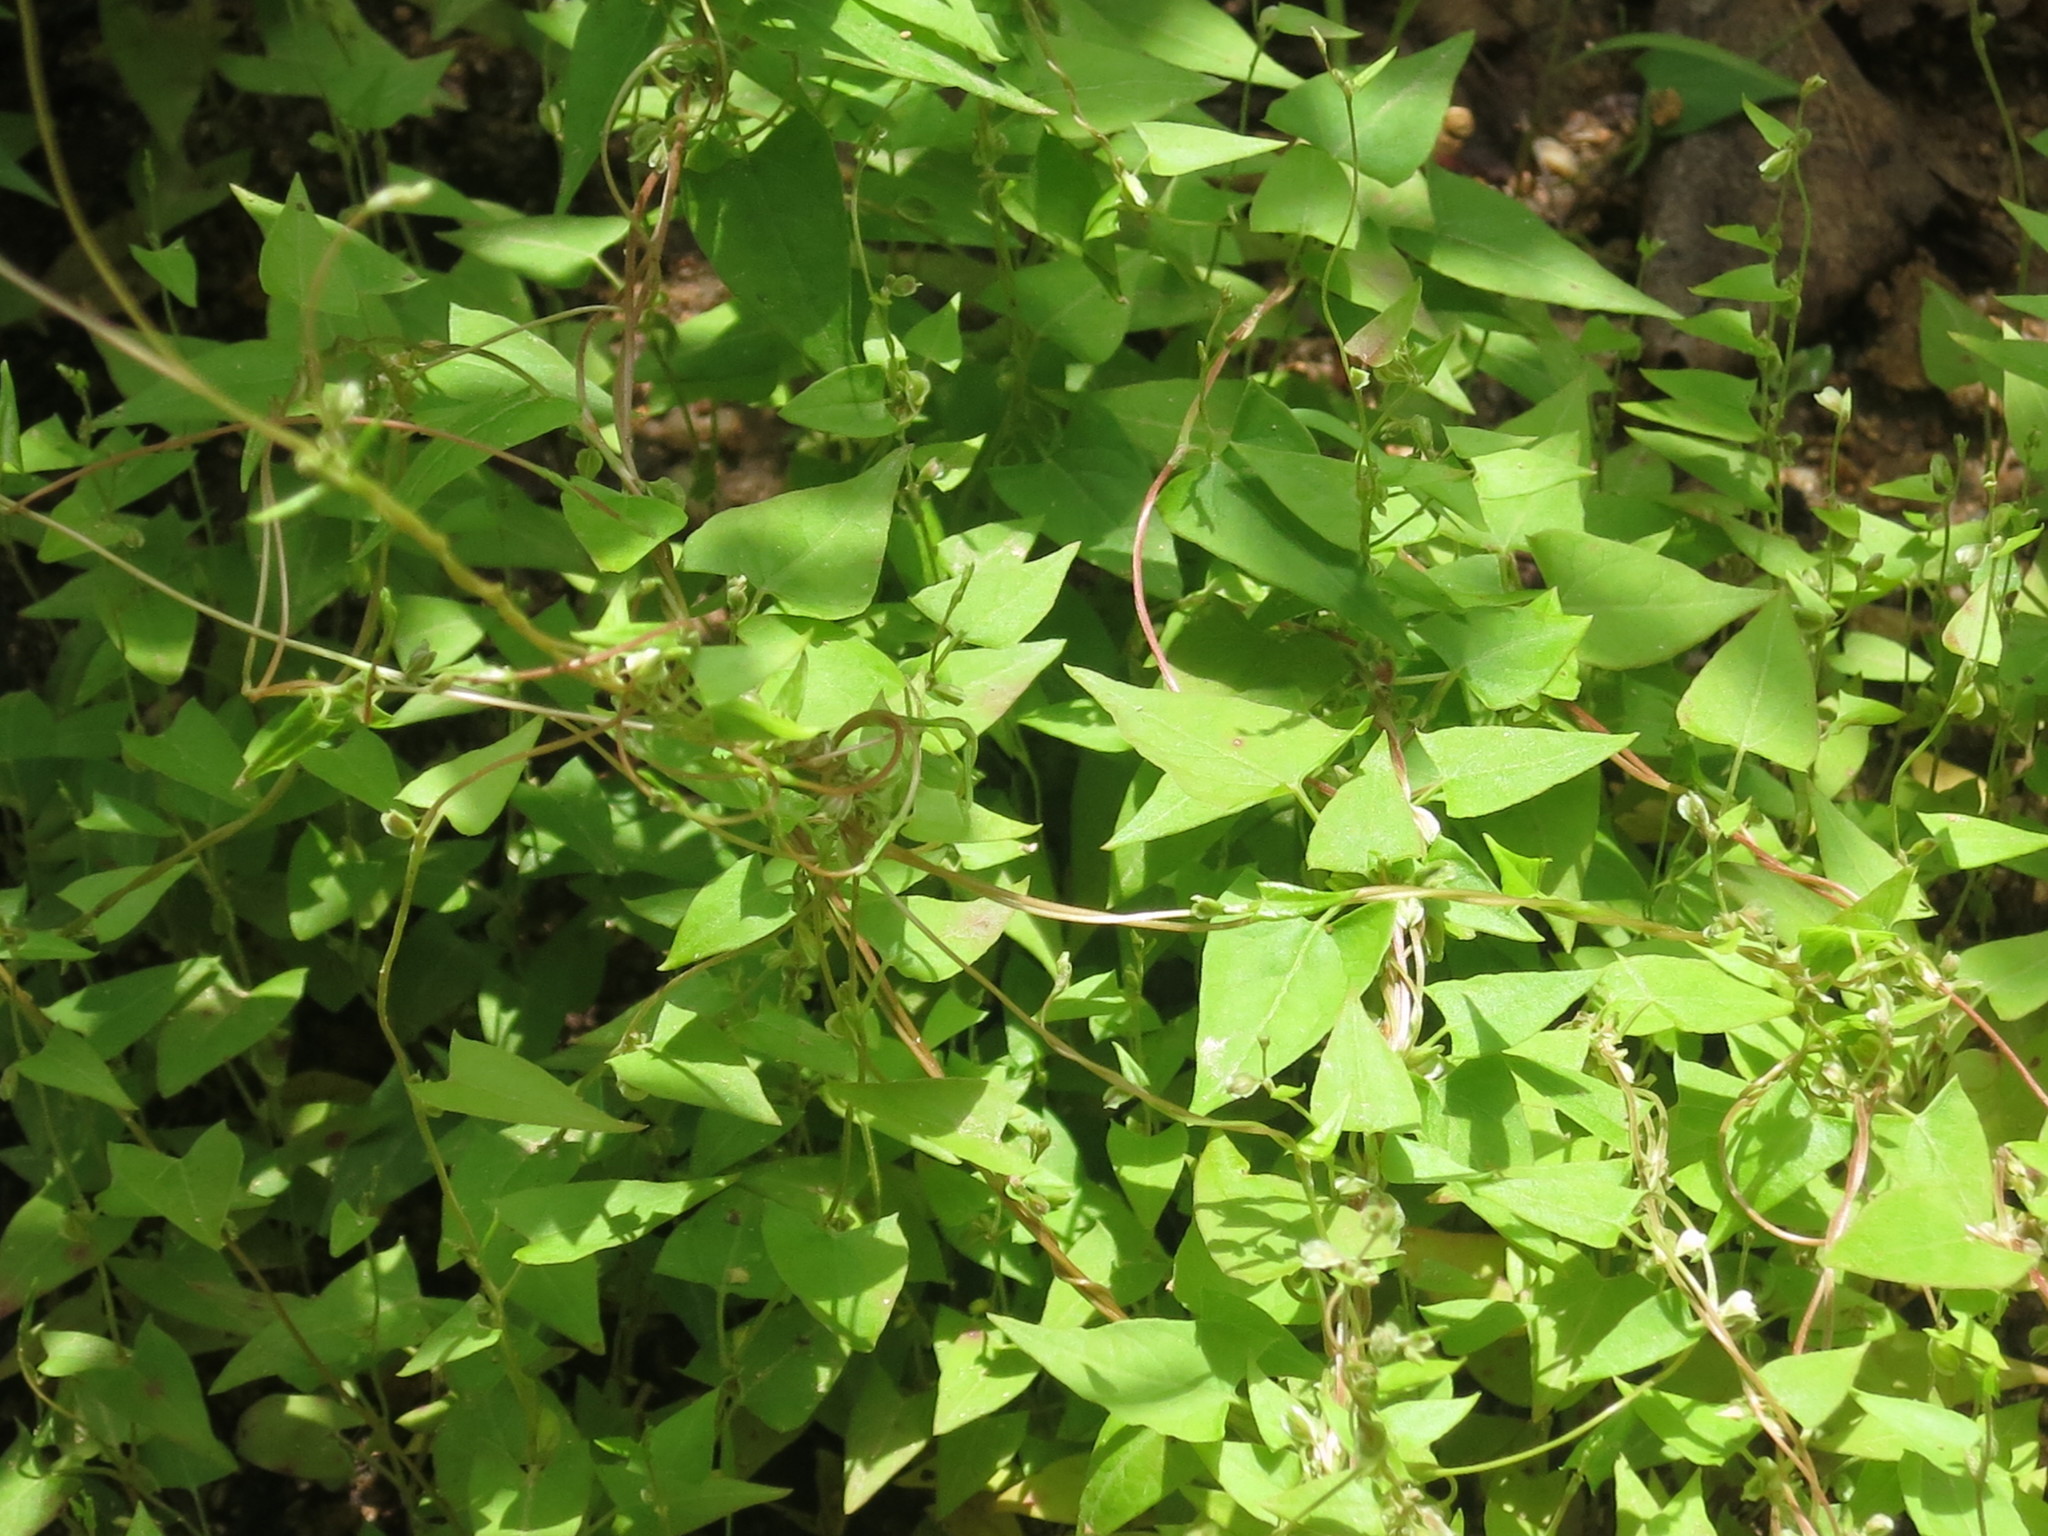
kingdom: Plantae
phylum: Tracheophyta
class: Magnoliopsida
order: Caryophyllales
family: Polygonaceae
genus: Fallopia
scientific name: Fallopia dumetorum
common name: Copse-bindweed
